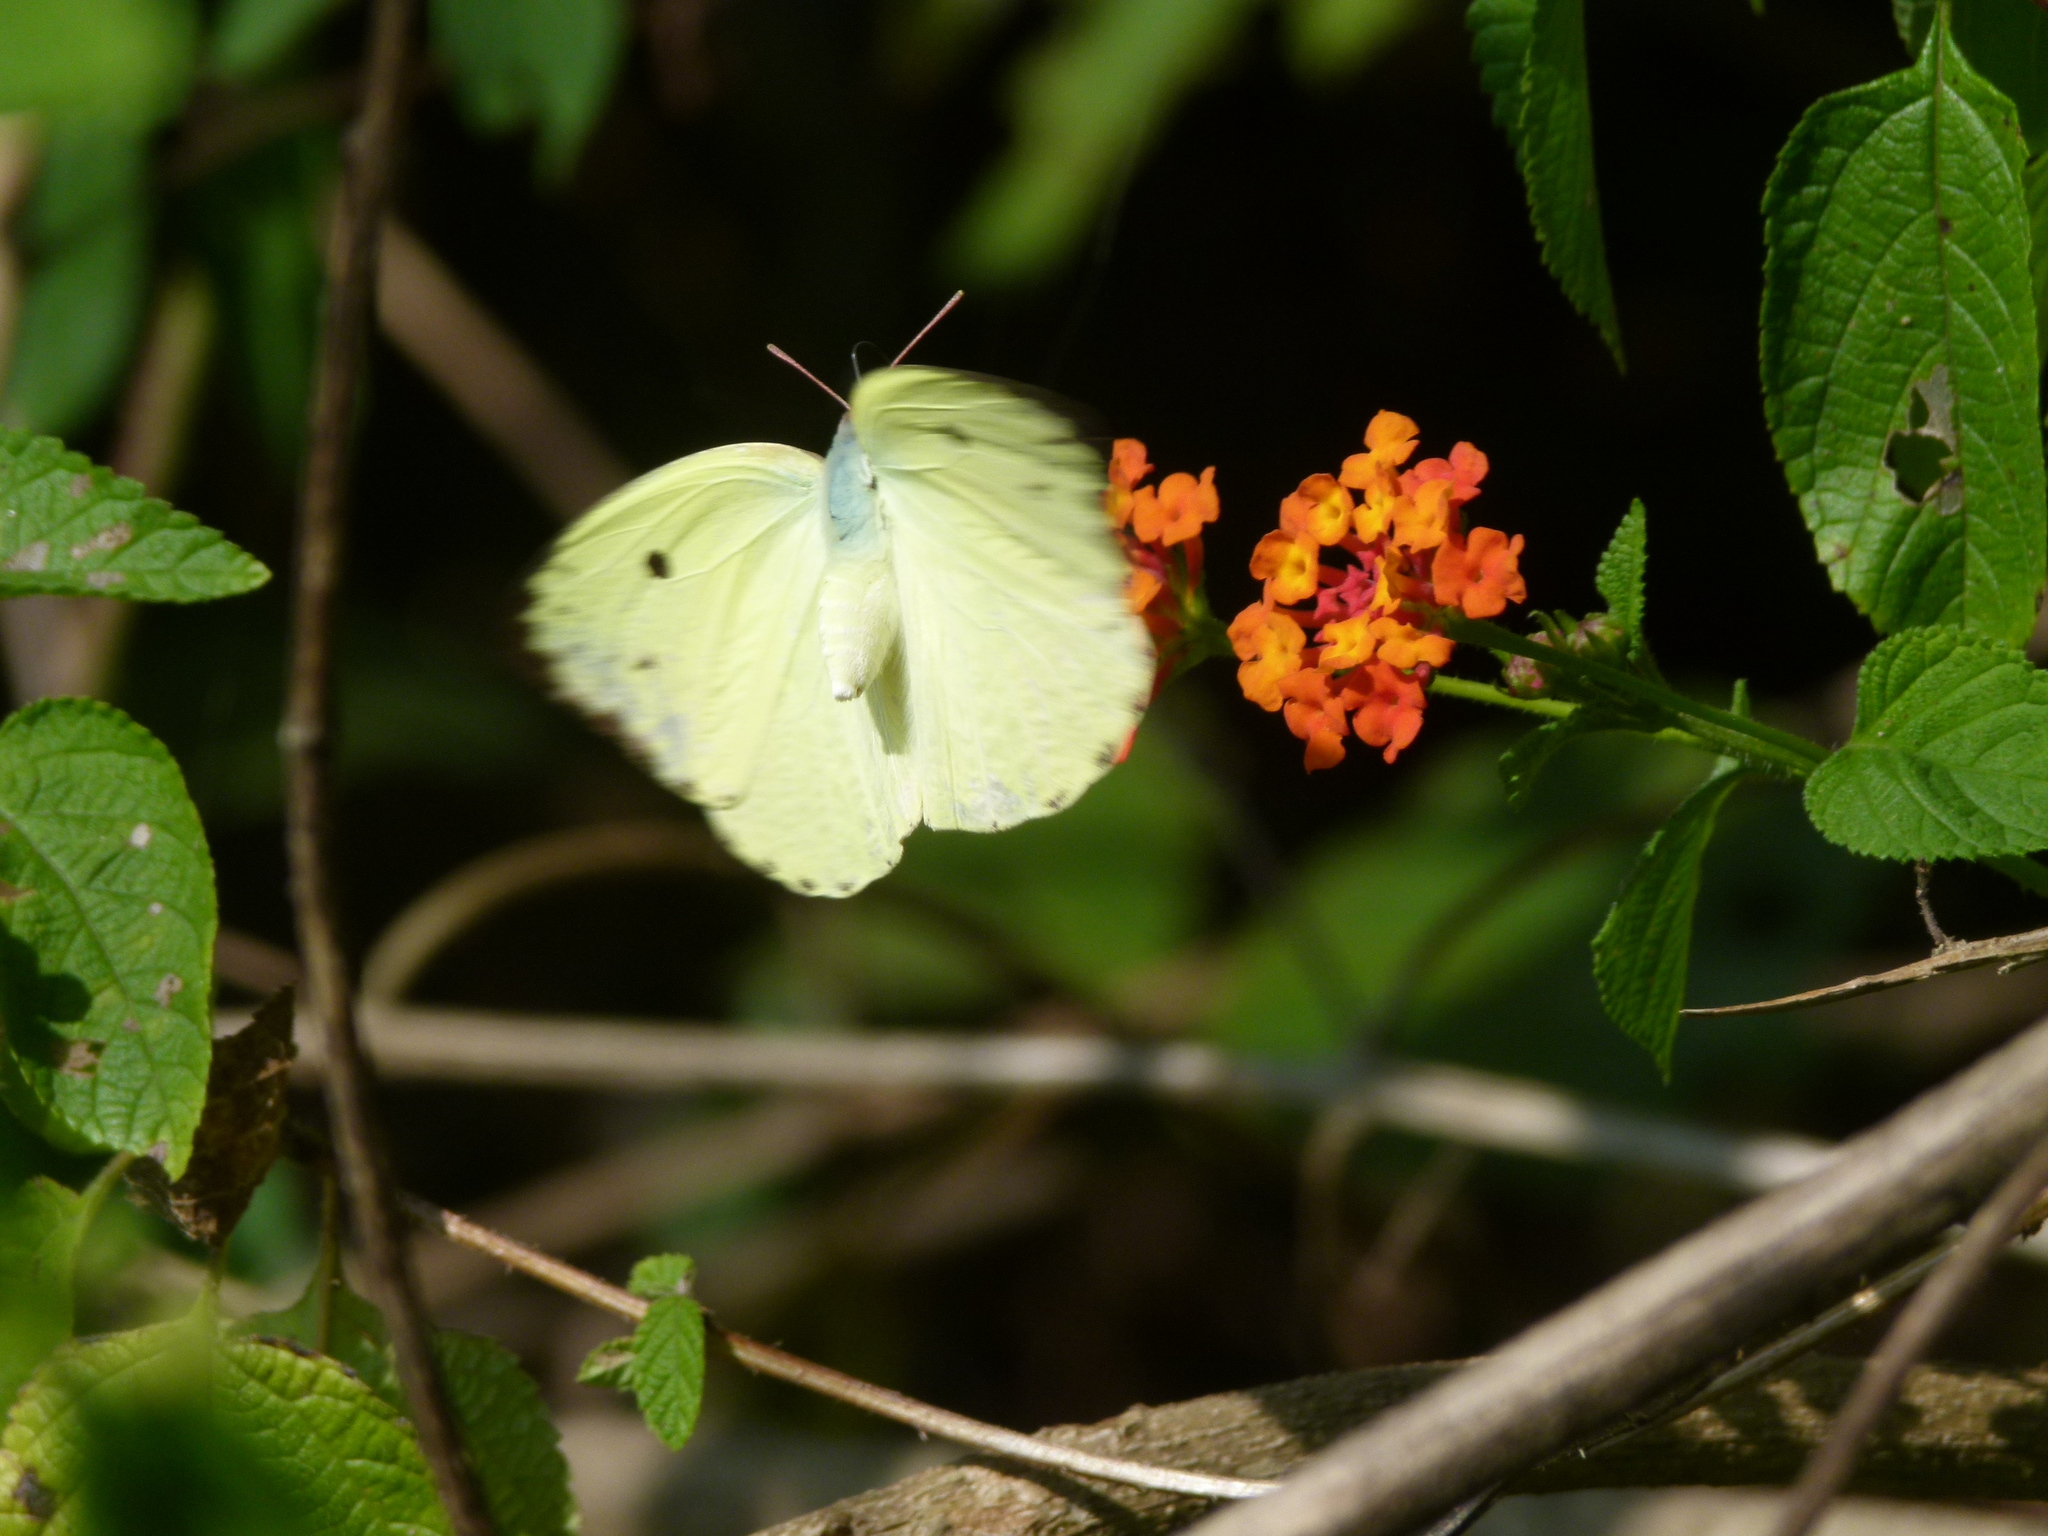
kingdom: Animalia
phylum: Arthropoda
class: Insecta
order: Lepidoptera
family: Pieridae
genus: Catopsilia
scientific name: Catopsilia pomona
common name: Common emigrant
